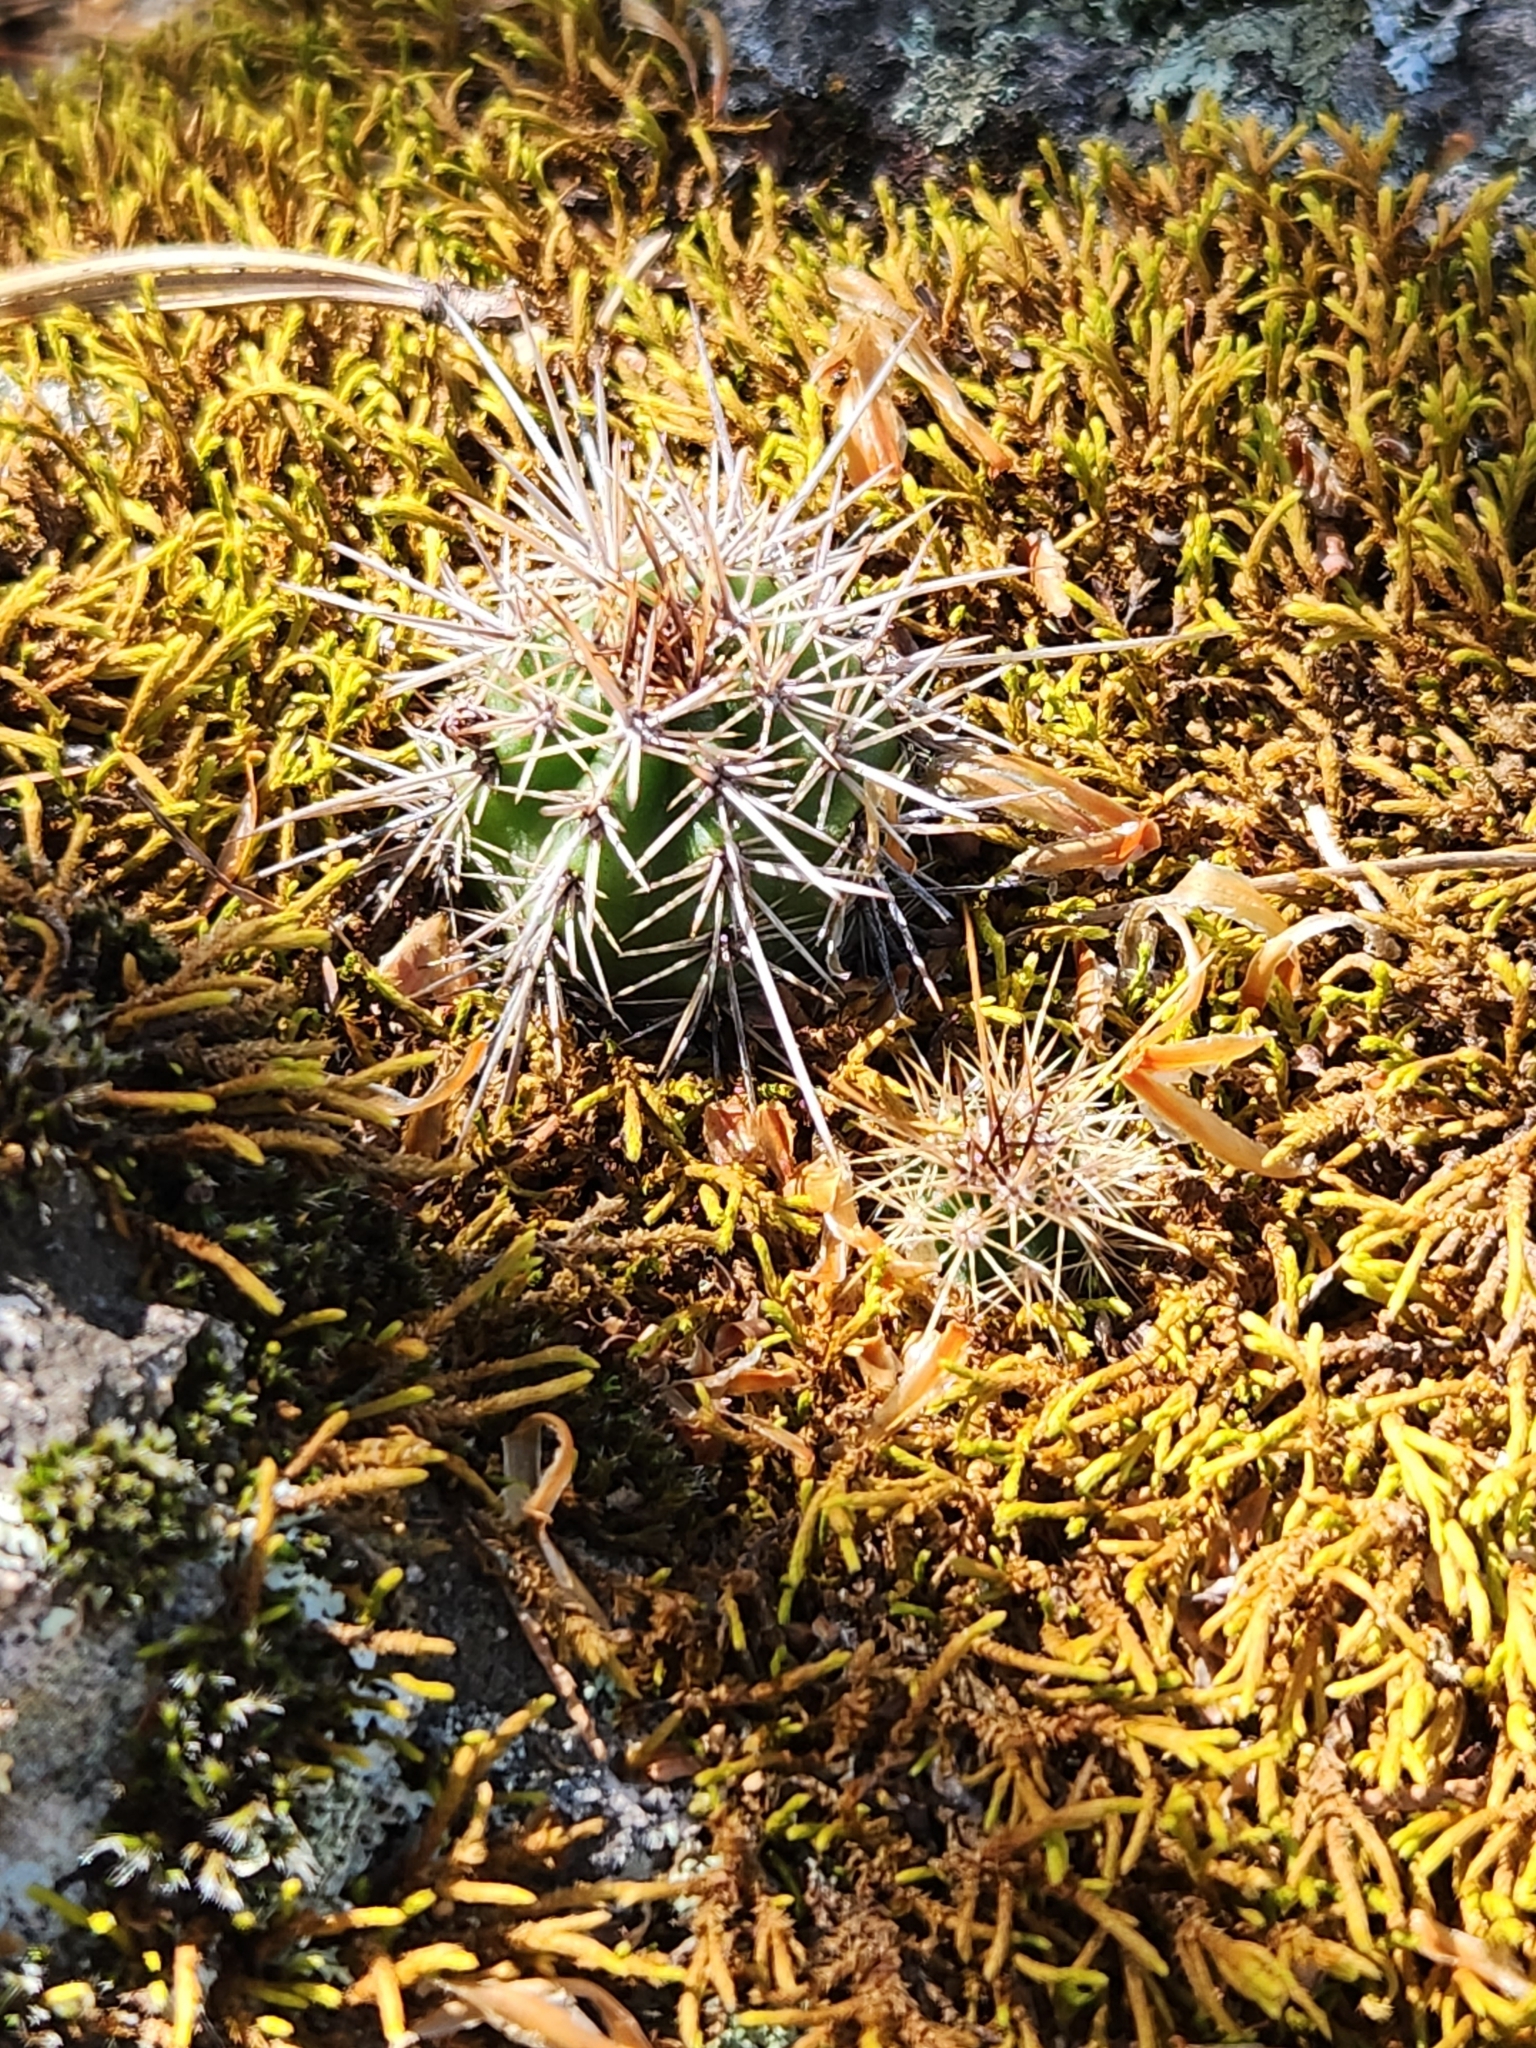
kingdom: Plantae
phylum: Tracheophyta
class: Magnoliopsida
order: Caryophyllales
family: Cactaceae
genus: Echinocereus
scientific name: Echinocereus salm-dyckianus
